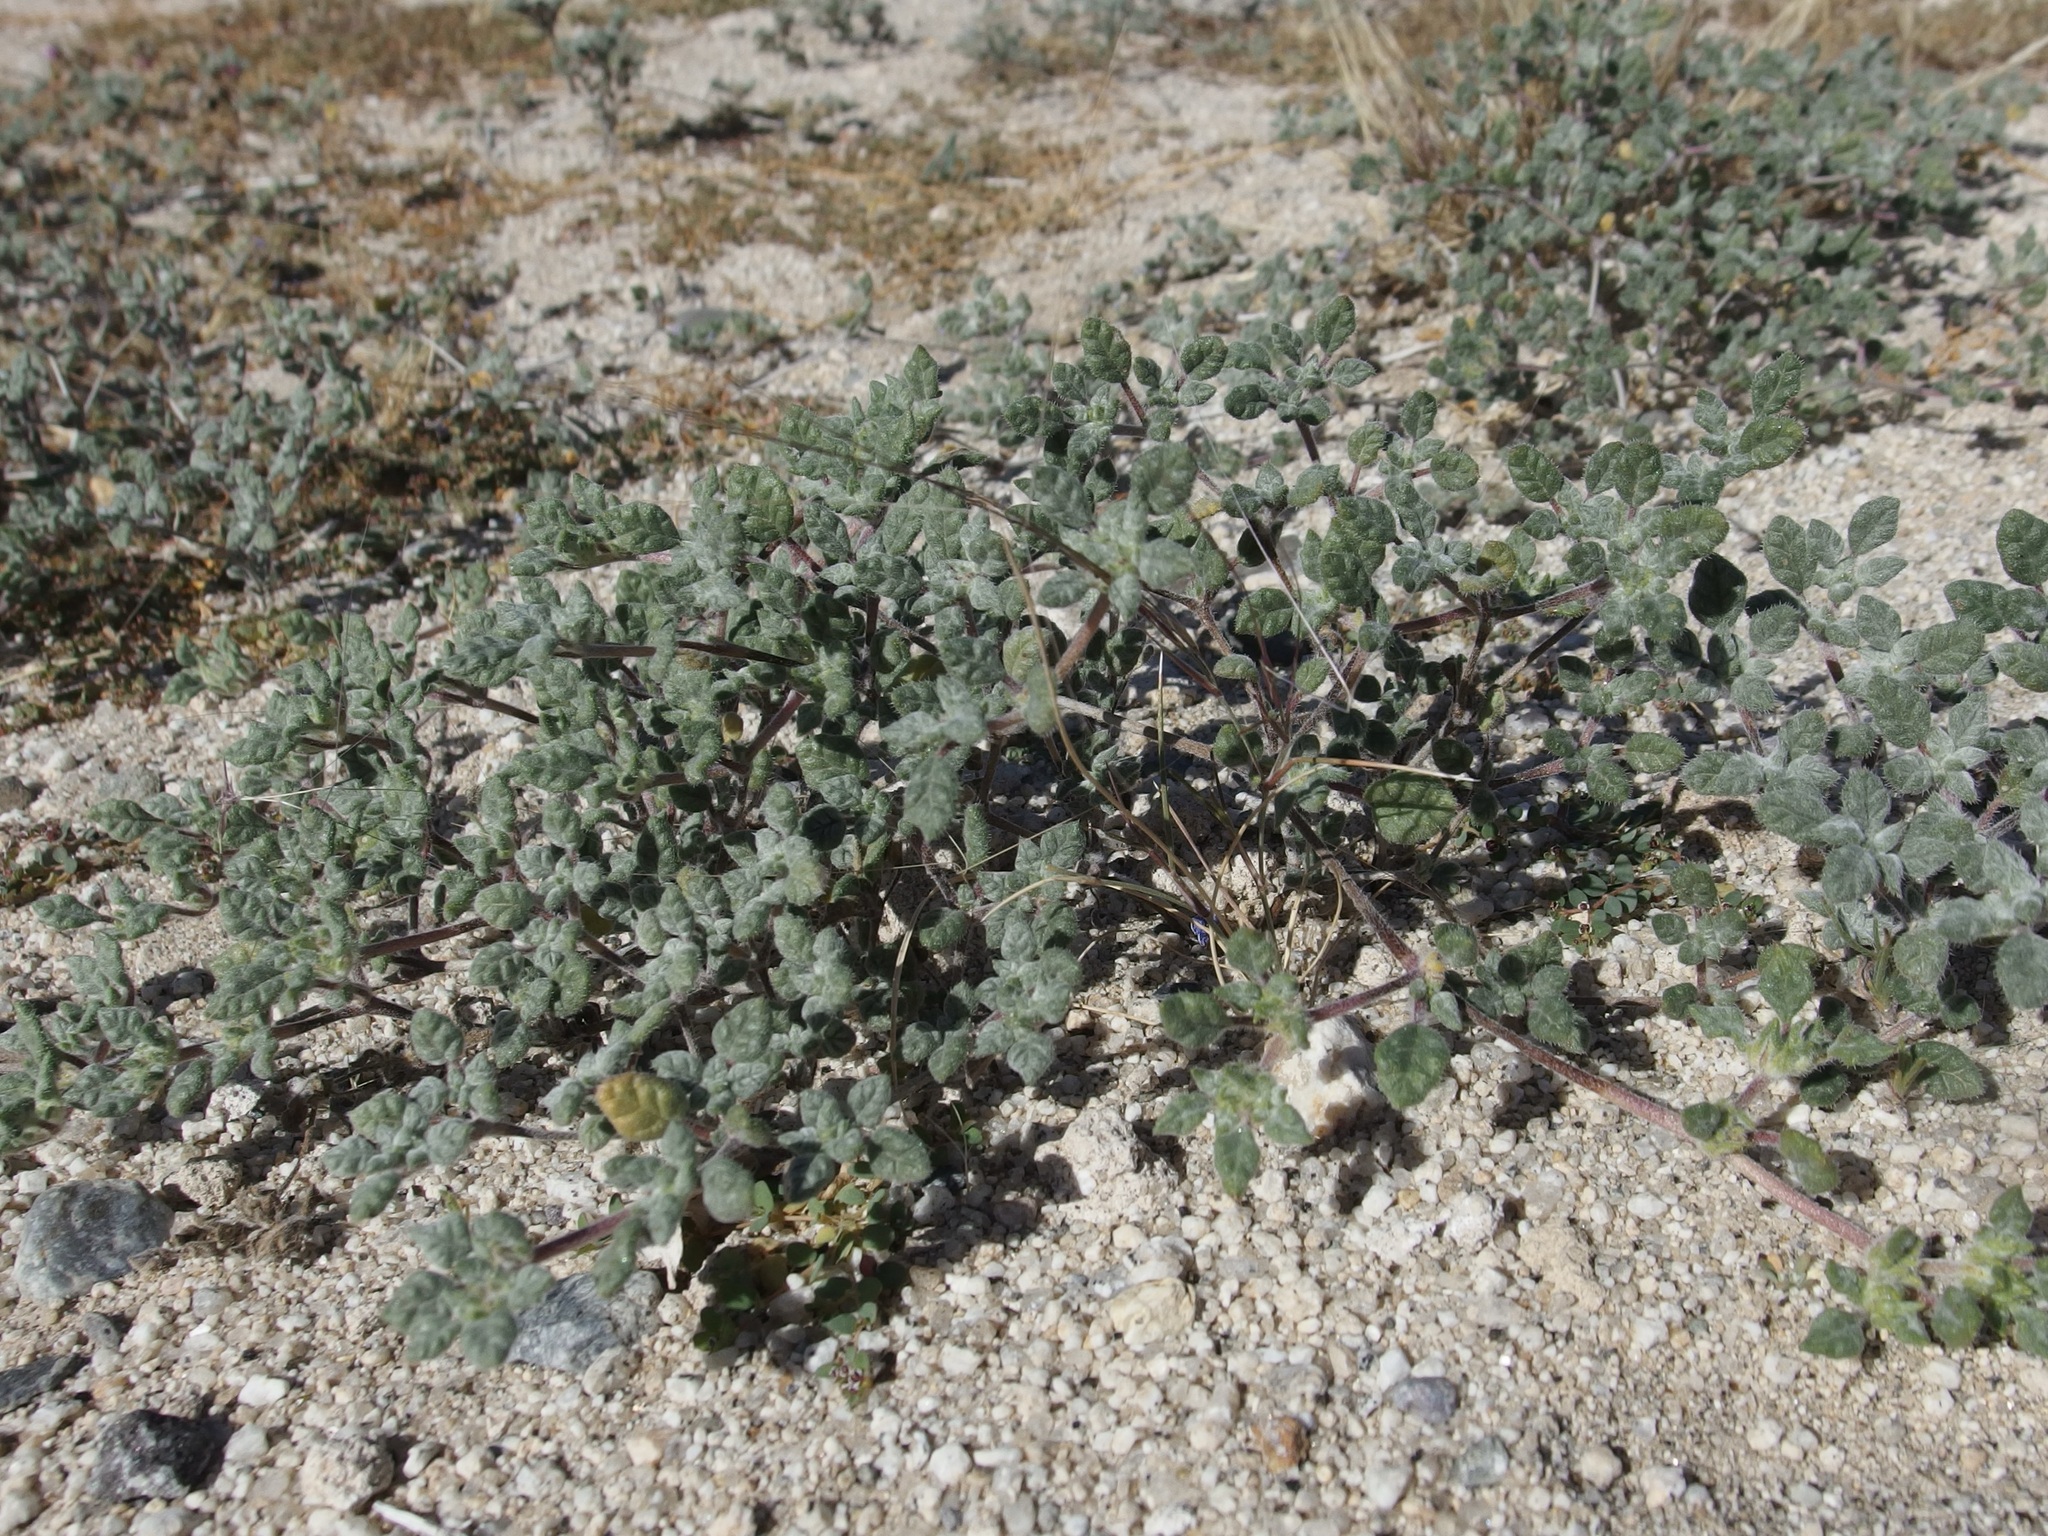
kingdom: Plantae
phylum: Tracheophyta
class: Magnoliopsida
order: Boraginales
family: Ehretiaceae
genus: Tiquilia
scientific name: Tiquilia palmeri
